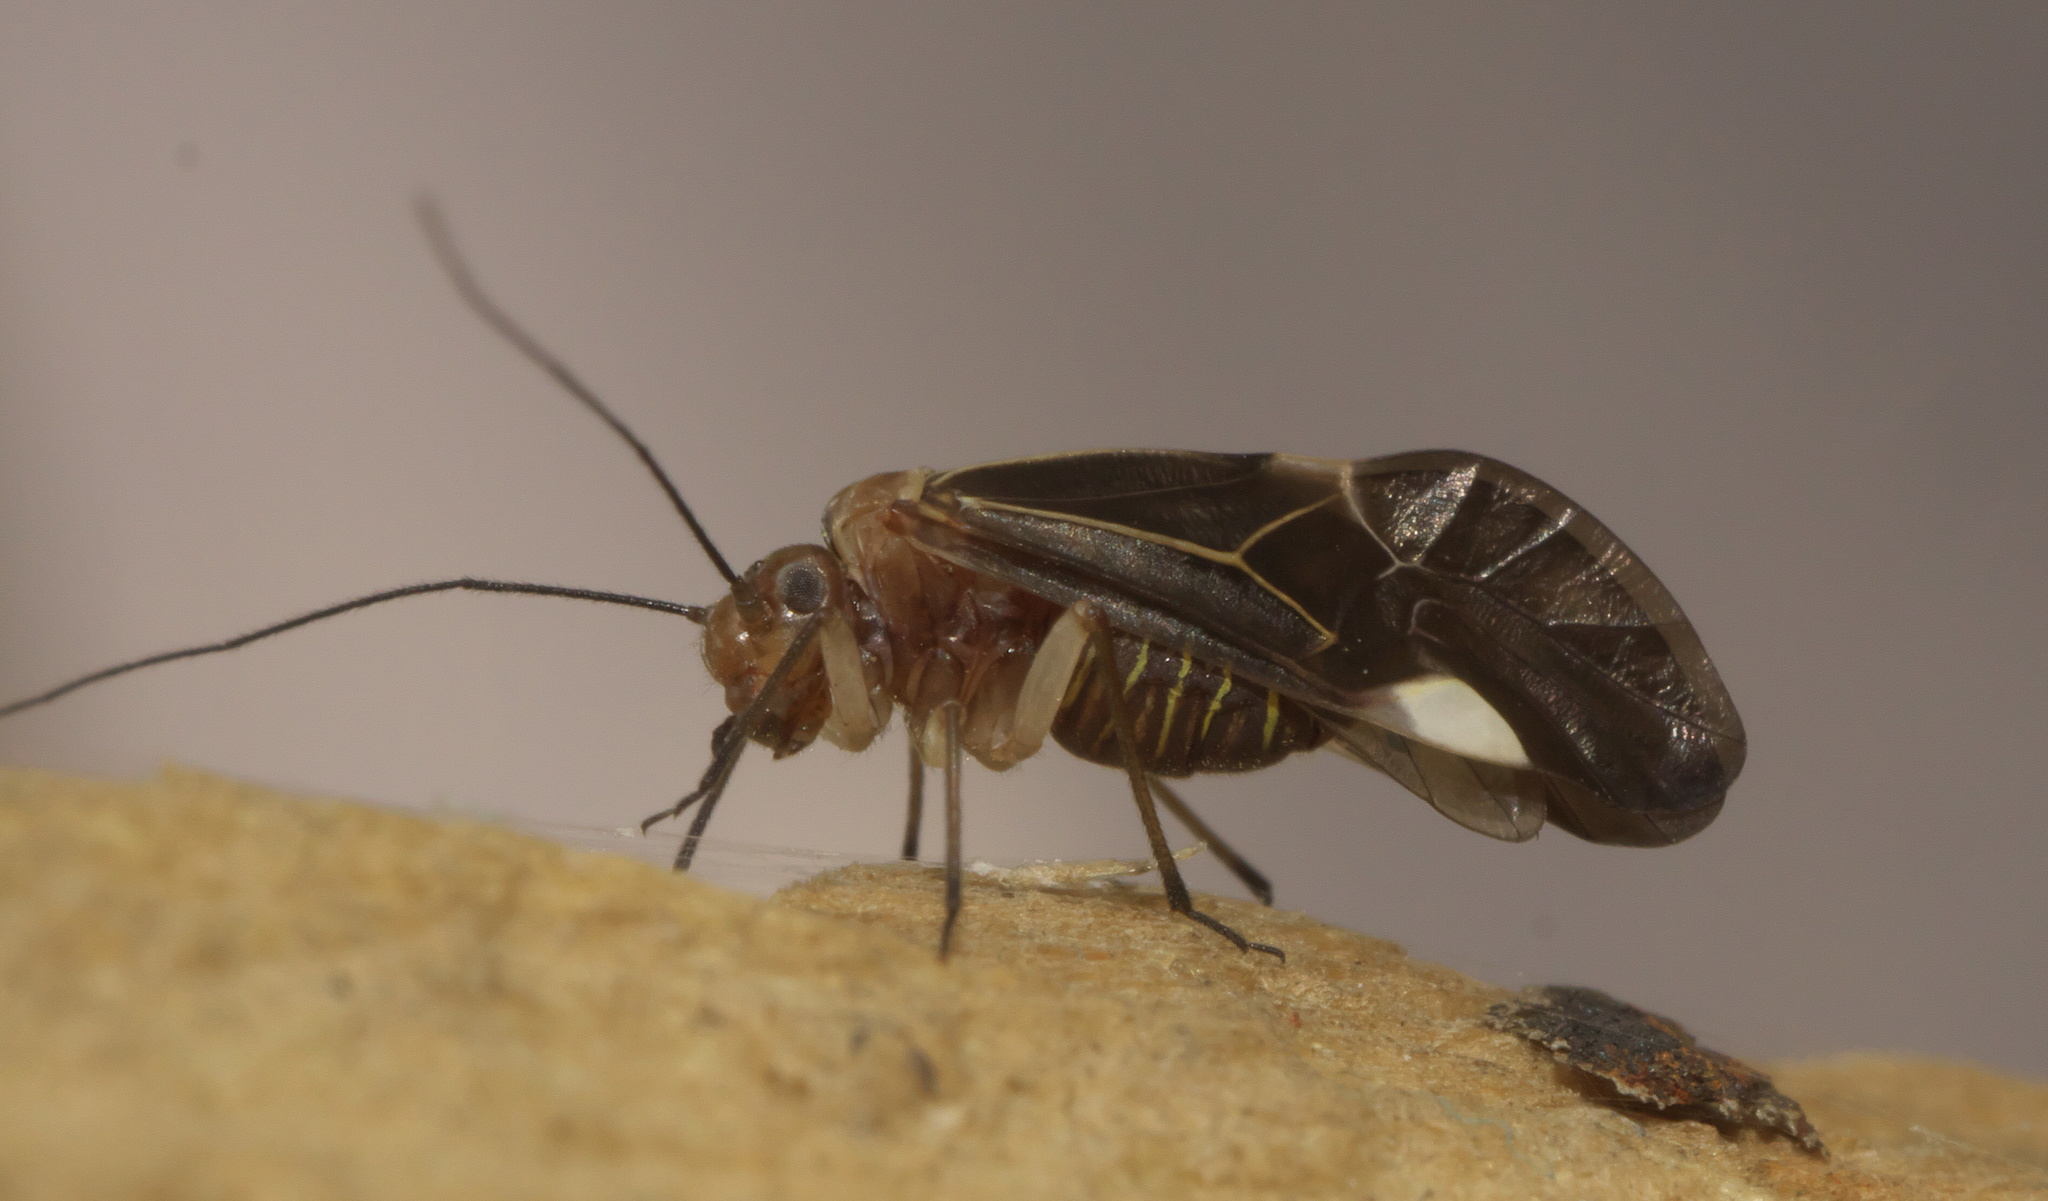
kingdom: Animalia
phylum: Arthropoda
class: Insecta
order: Psocodea
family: Psocidae
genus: Cerastipsocus
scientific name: Cerastipsocus venosus
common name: Tree cattle
